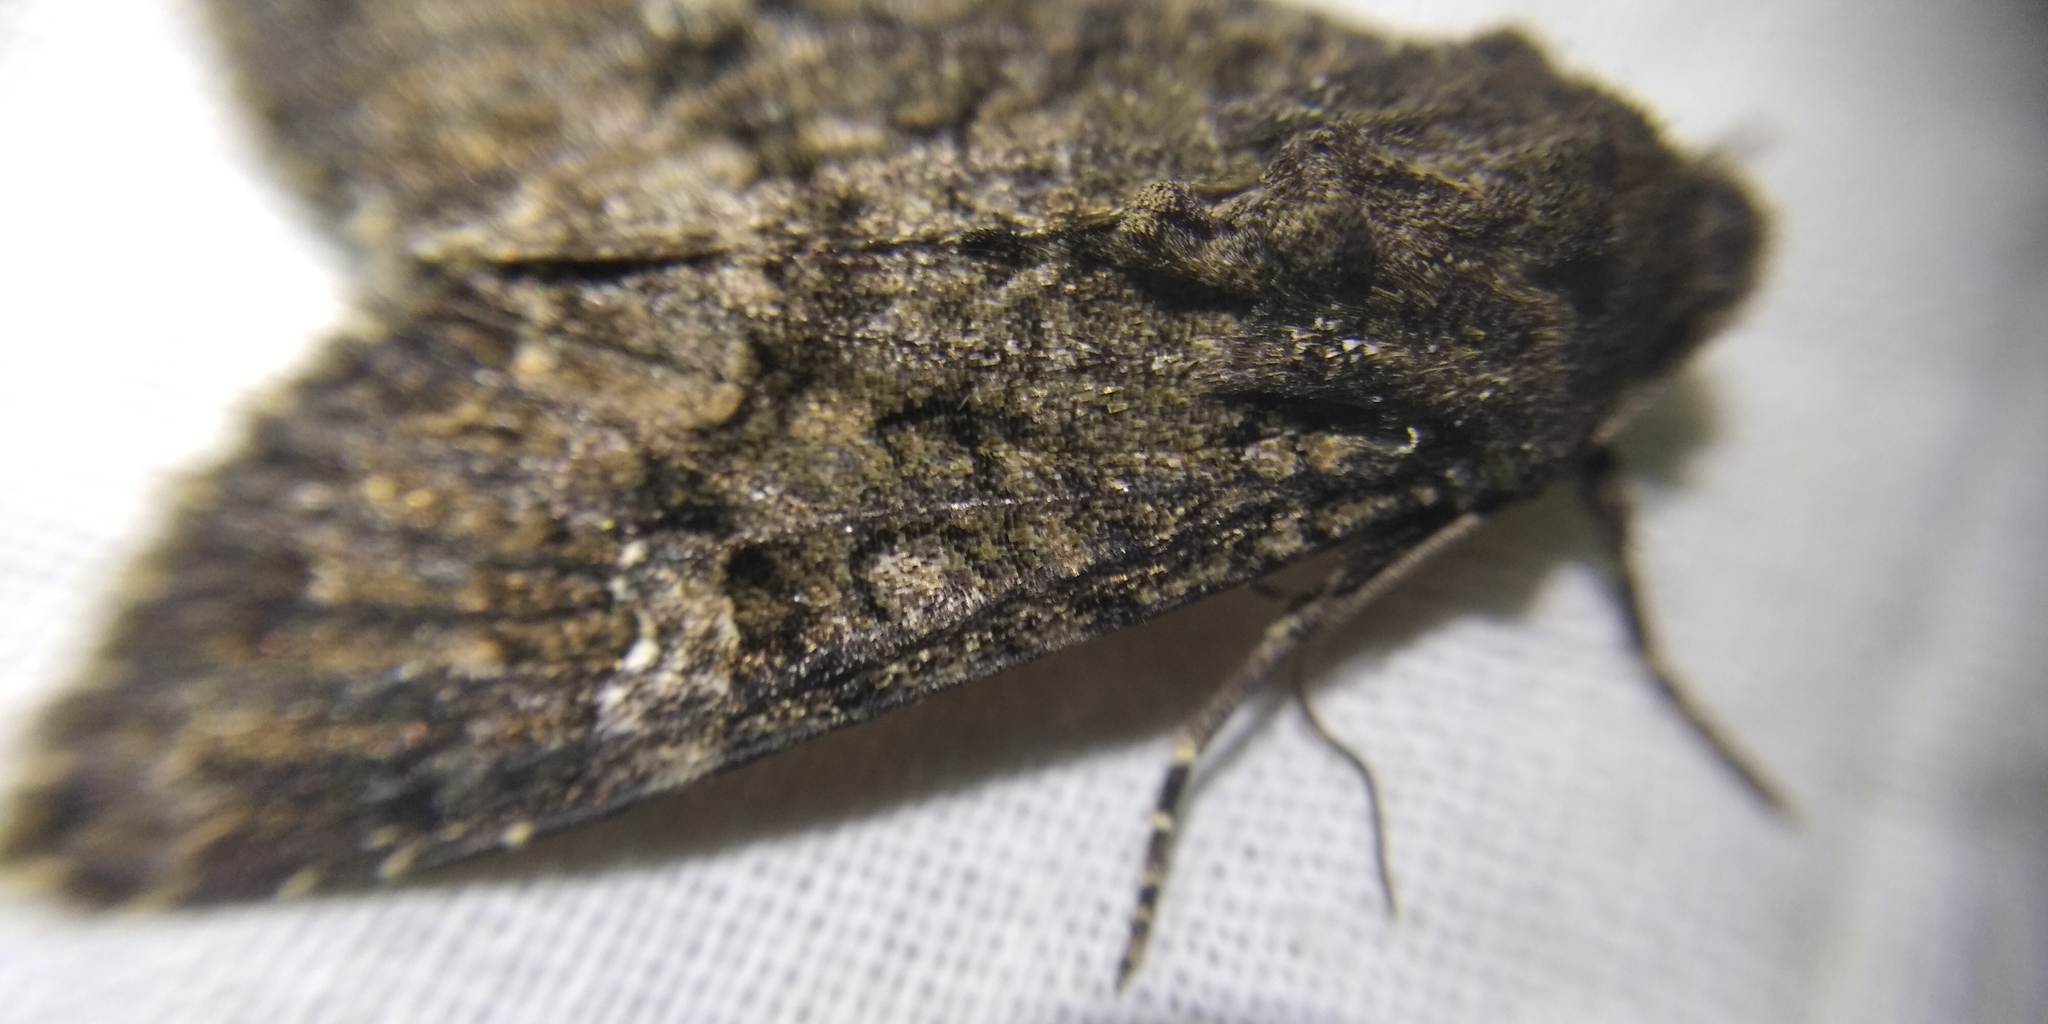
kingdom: Animalia
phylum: Arthropoda
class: Insecta
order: Lepidoptera
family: Noctuidae
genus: Mamestra
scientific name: Mamestra brassicae
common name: Cabbage moth
